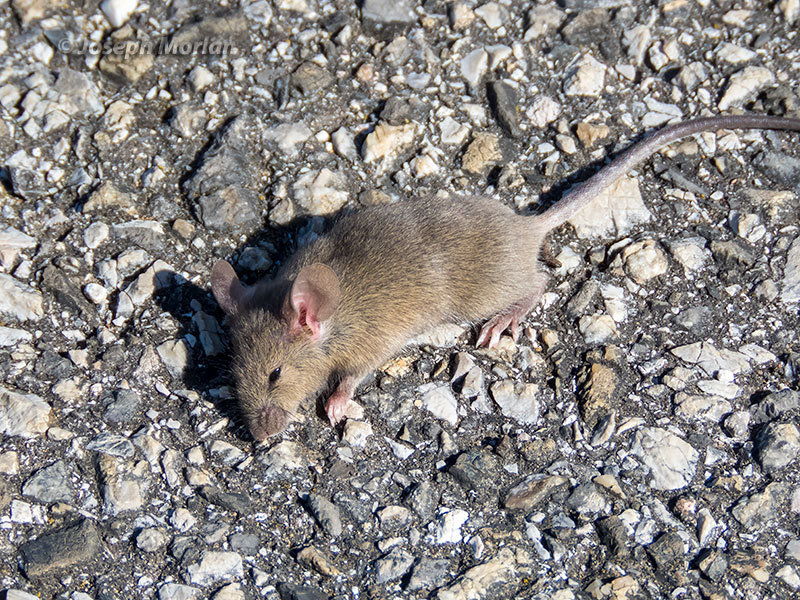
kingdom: Animalia
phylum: Chordata
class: Mammalia
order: Rodentia
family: Muridae
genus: Mus
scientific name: Mus musculus
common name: House mouse
